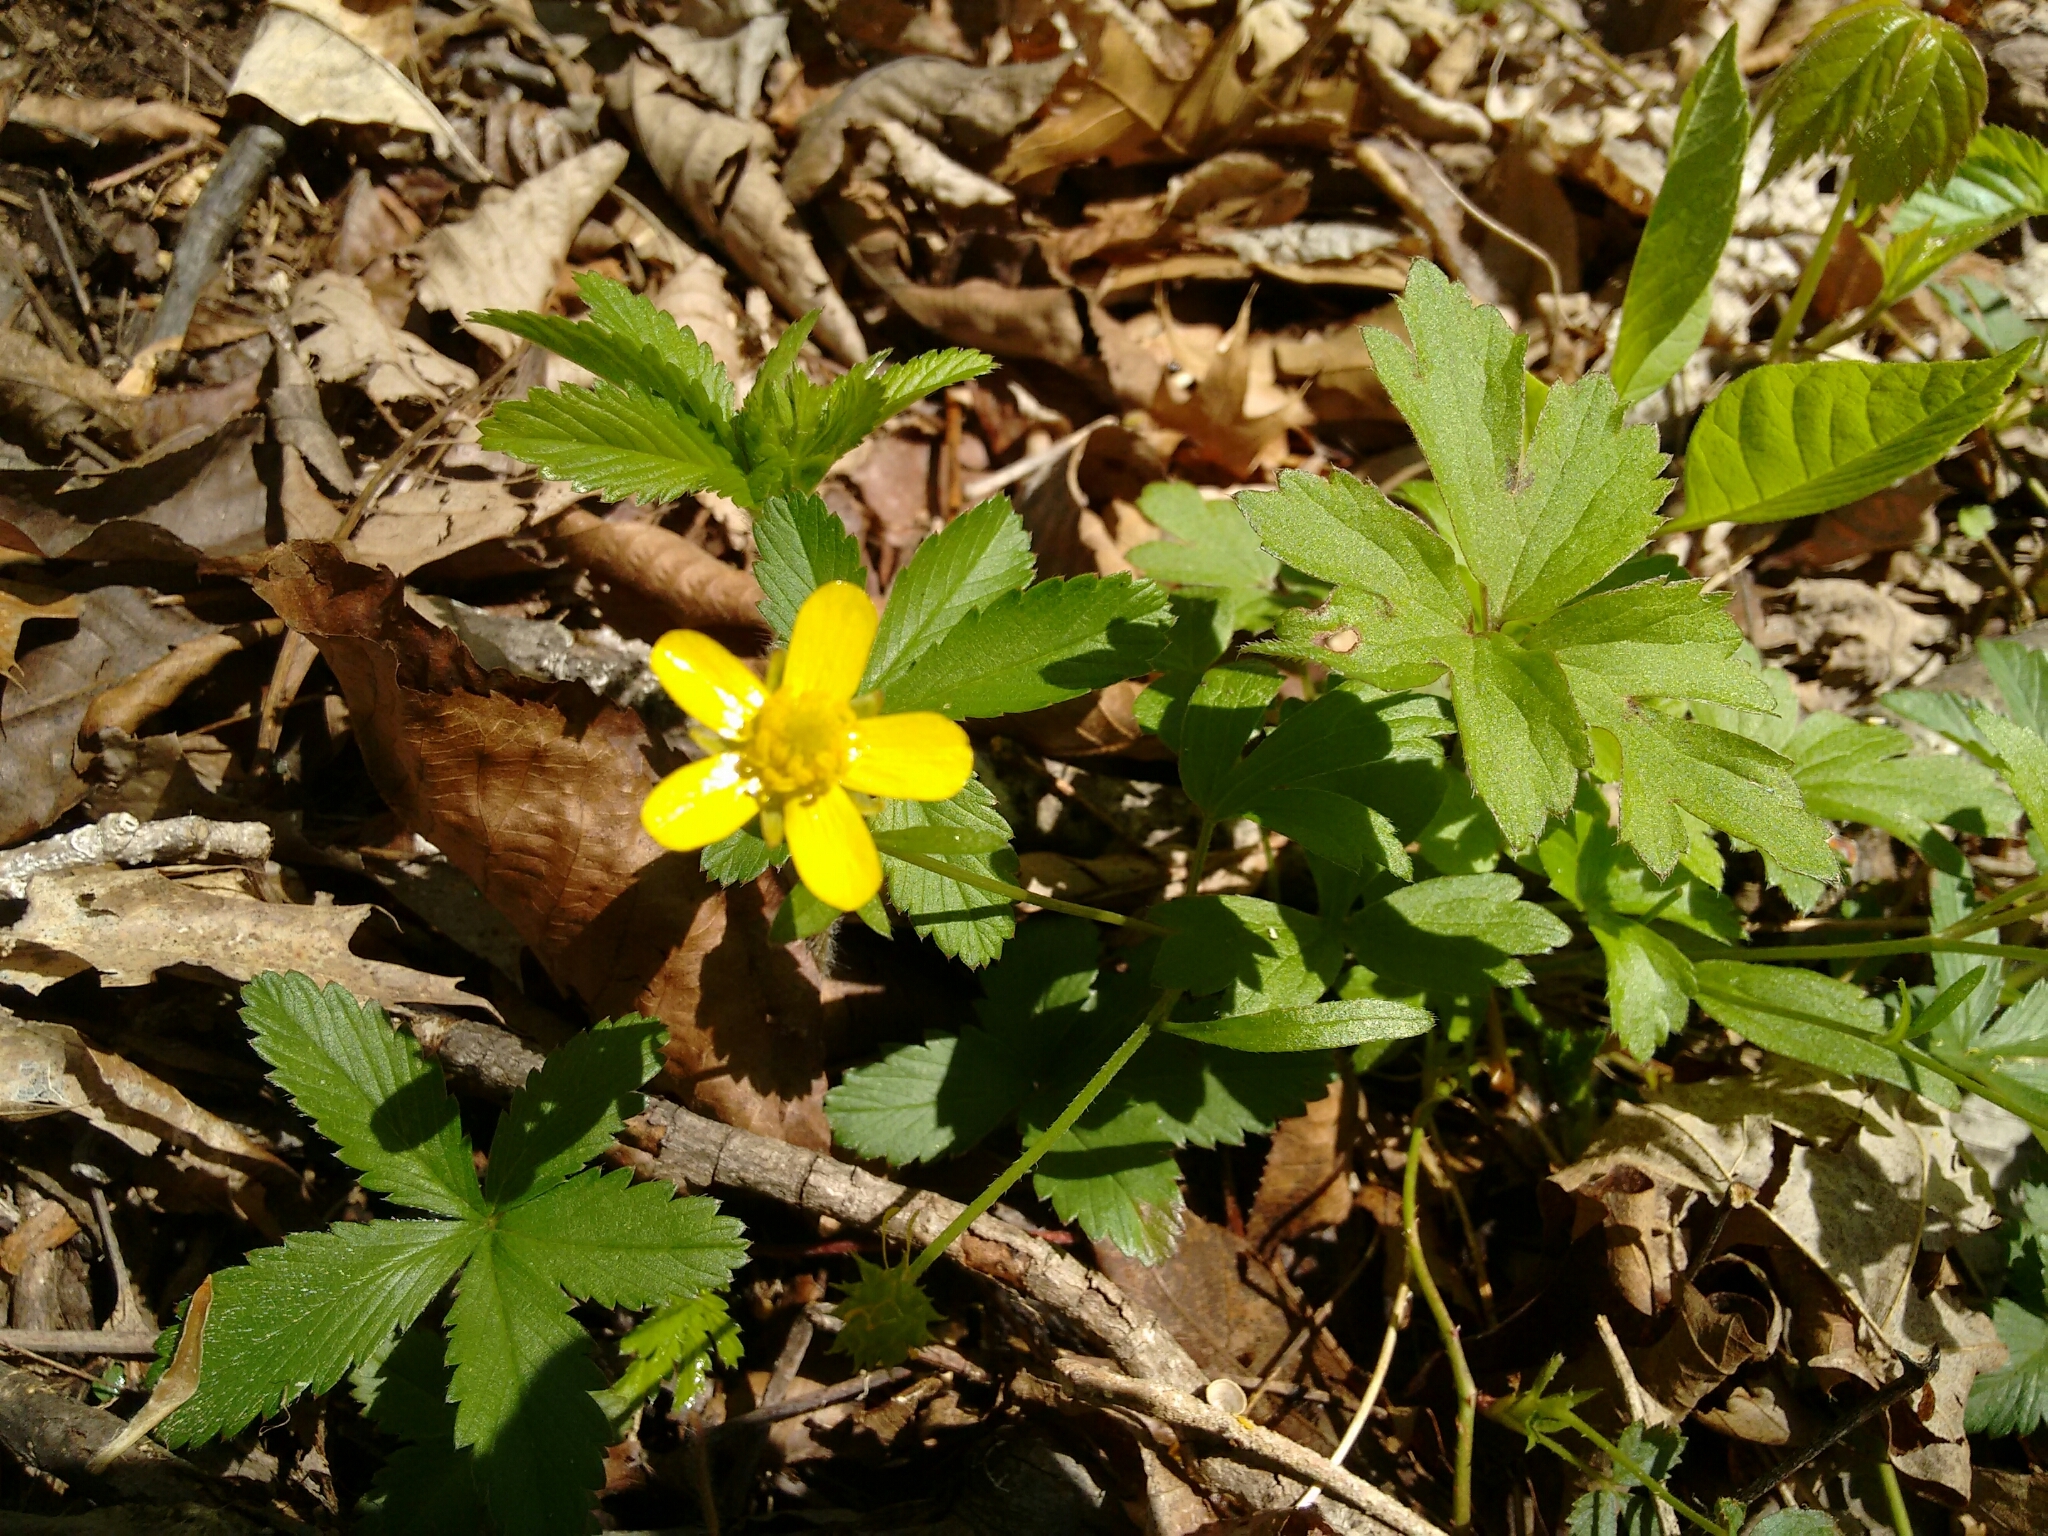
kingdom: Plantae
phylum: Tracheophyta
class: Magnoliopsida
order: Ranunculales
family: Ranunculaceae
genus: Ranunculus
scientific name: Ranunculus hispidus
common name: Bristly buttercup
